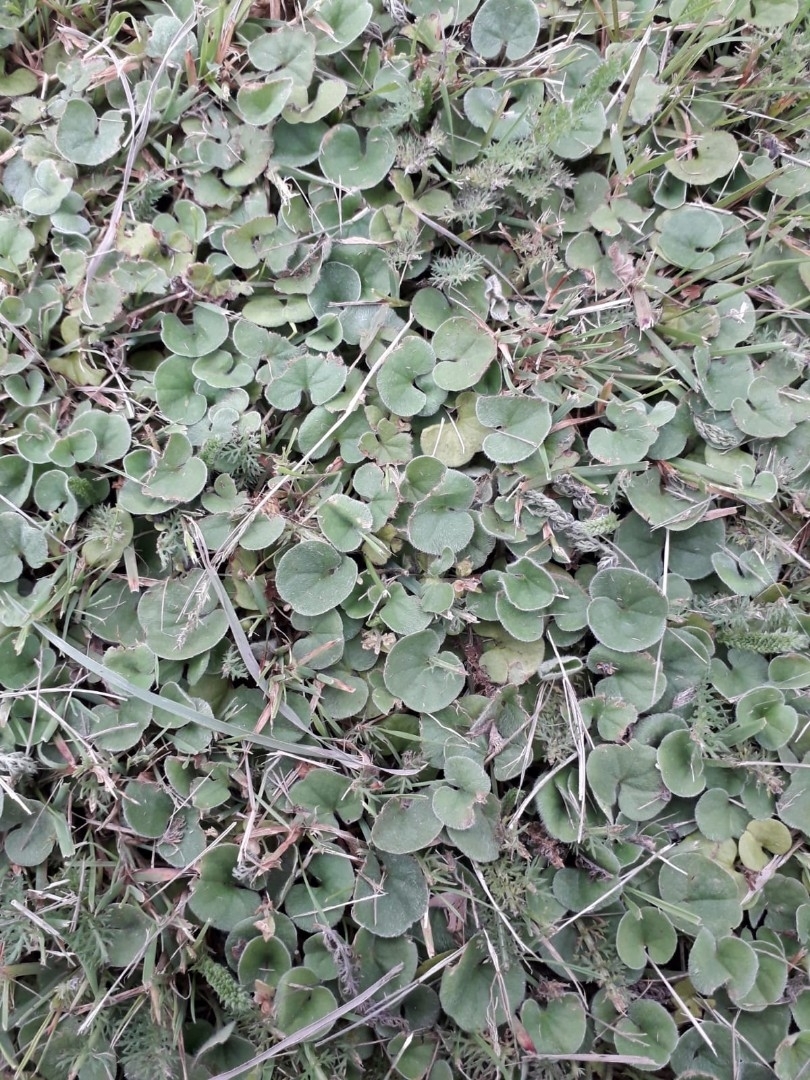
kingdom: Plantae
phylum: Tracheophyta
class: Magnoliopsida
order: Solanales
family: Convolvulaceae
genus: Dichondra
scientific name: Dichondra repens
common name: Kidneyweed
